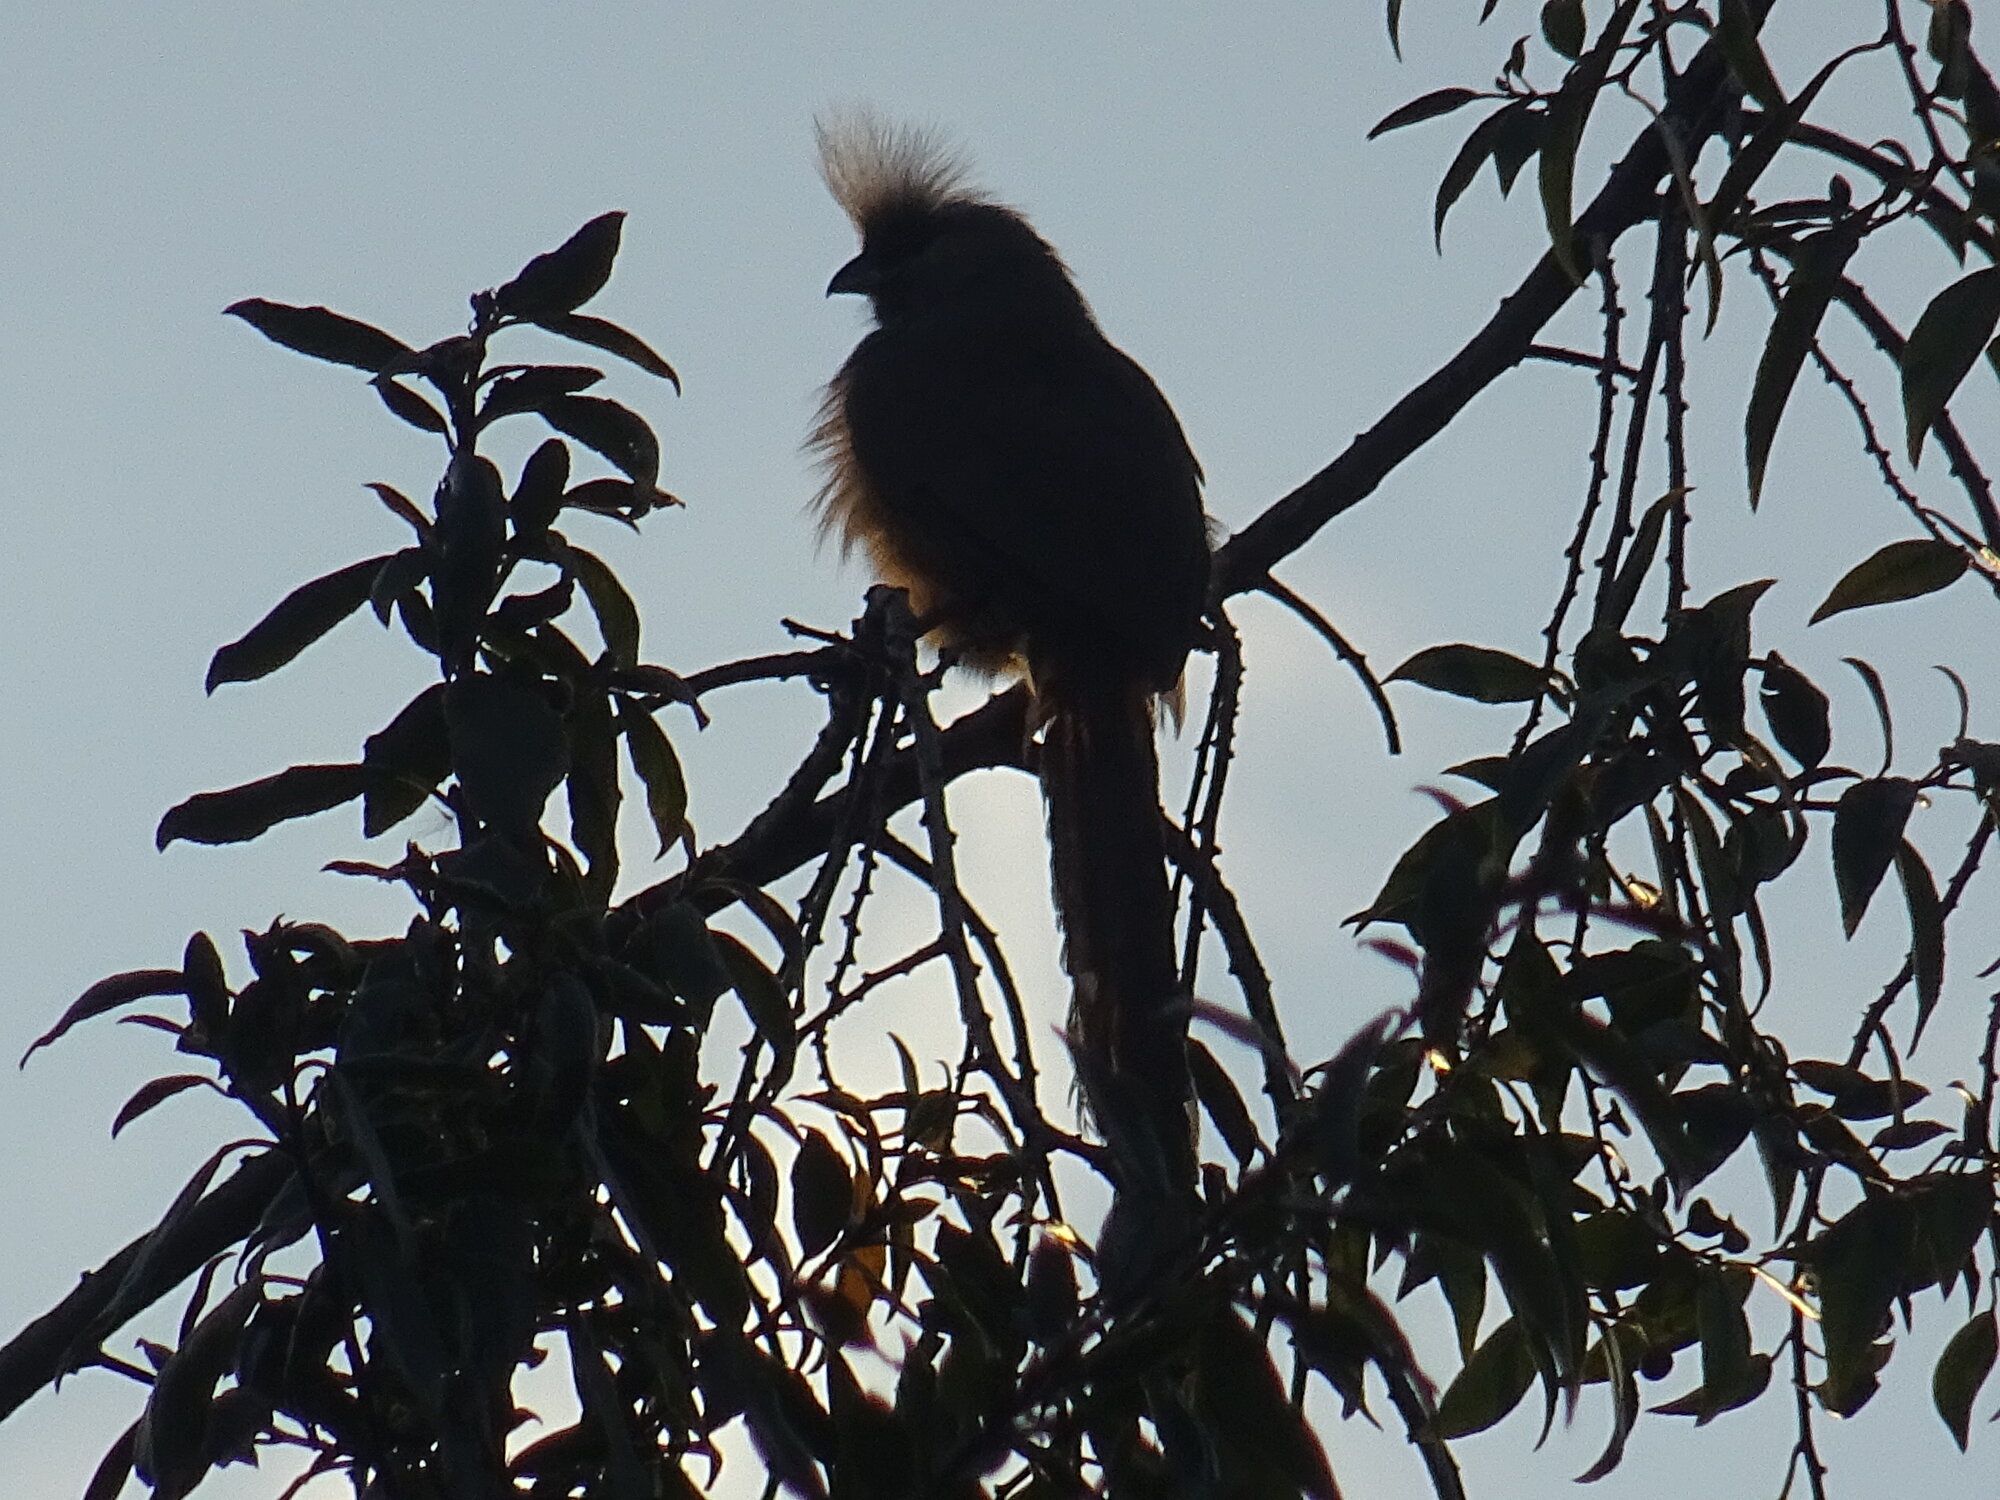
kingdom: Animalia
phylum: Chordata
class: Aves
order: Coliiformes
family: Coliidae
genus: Colius
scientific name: Colius striatus
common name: Speckled mousebird
